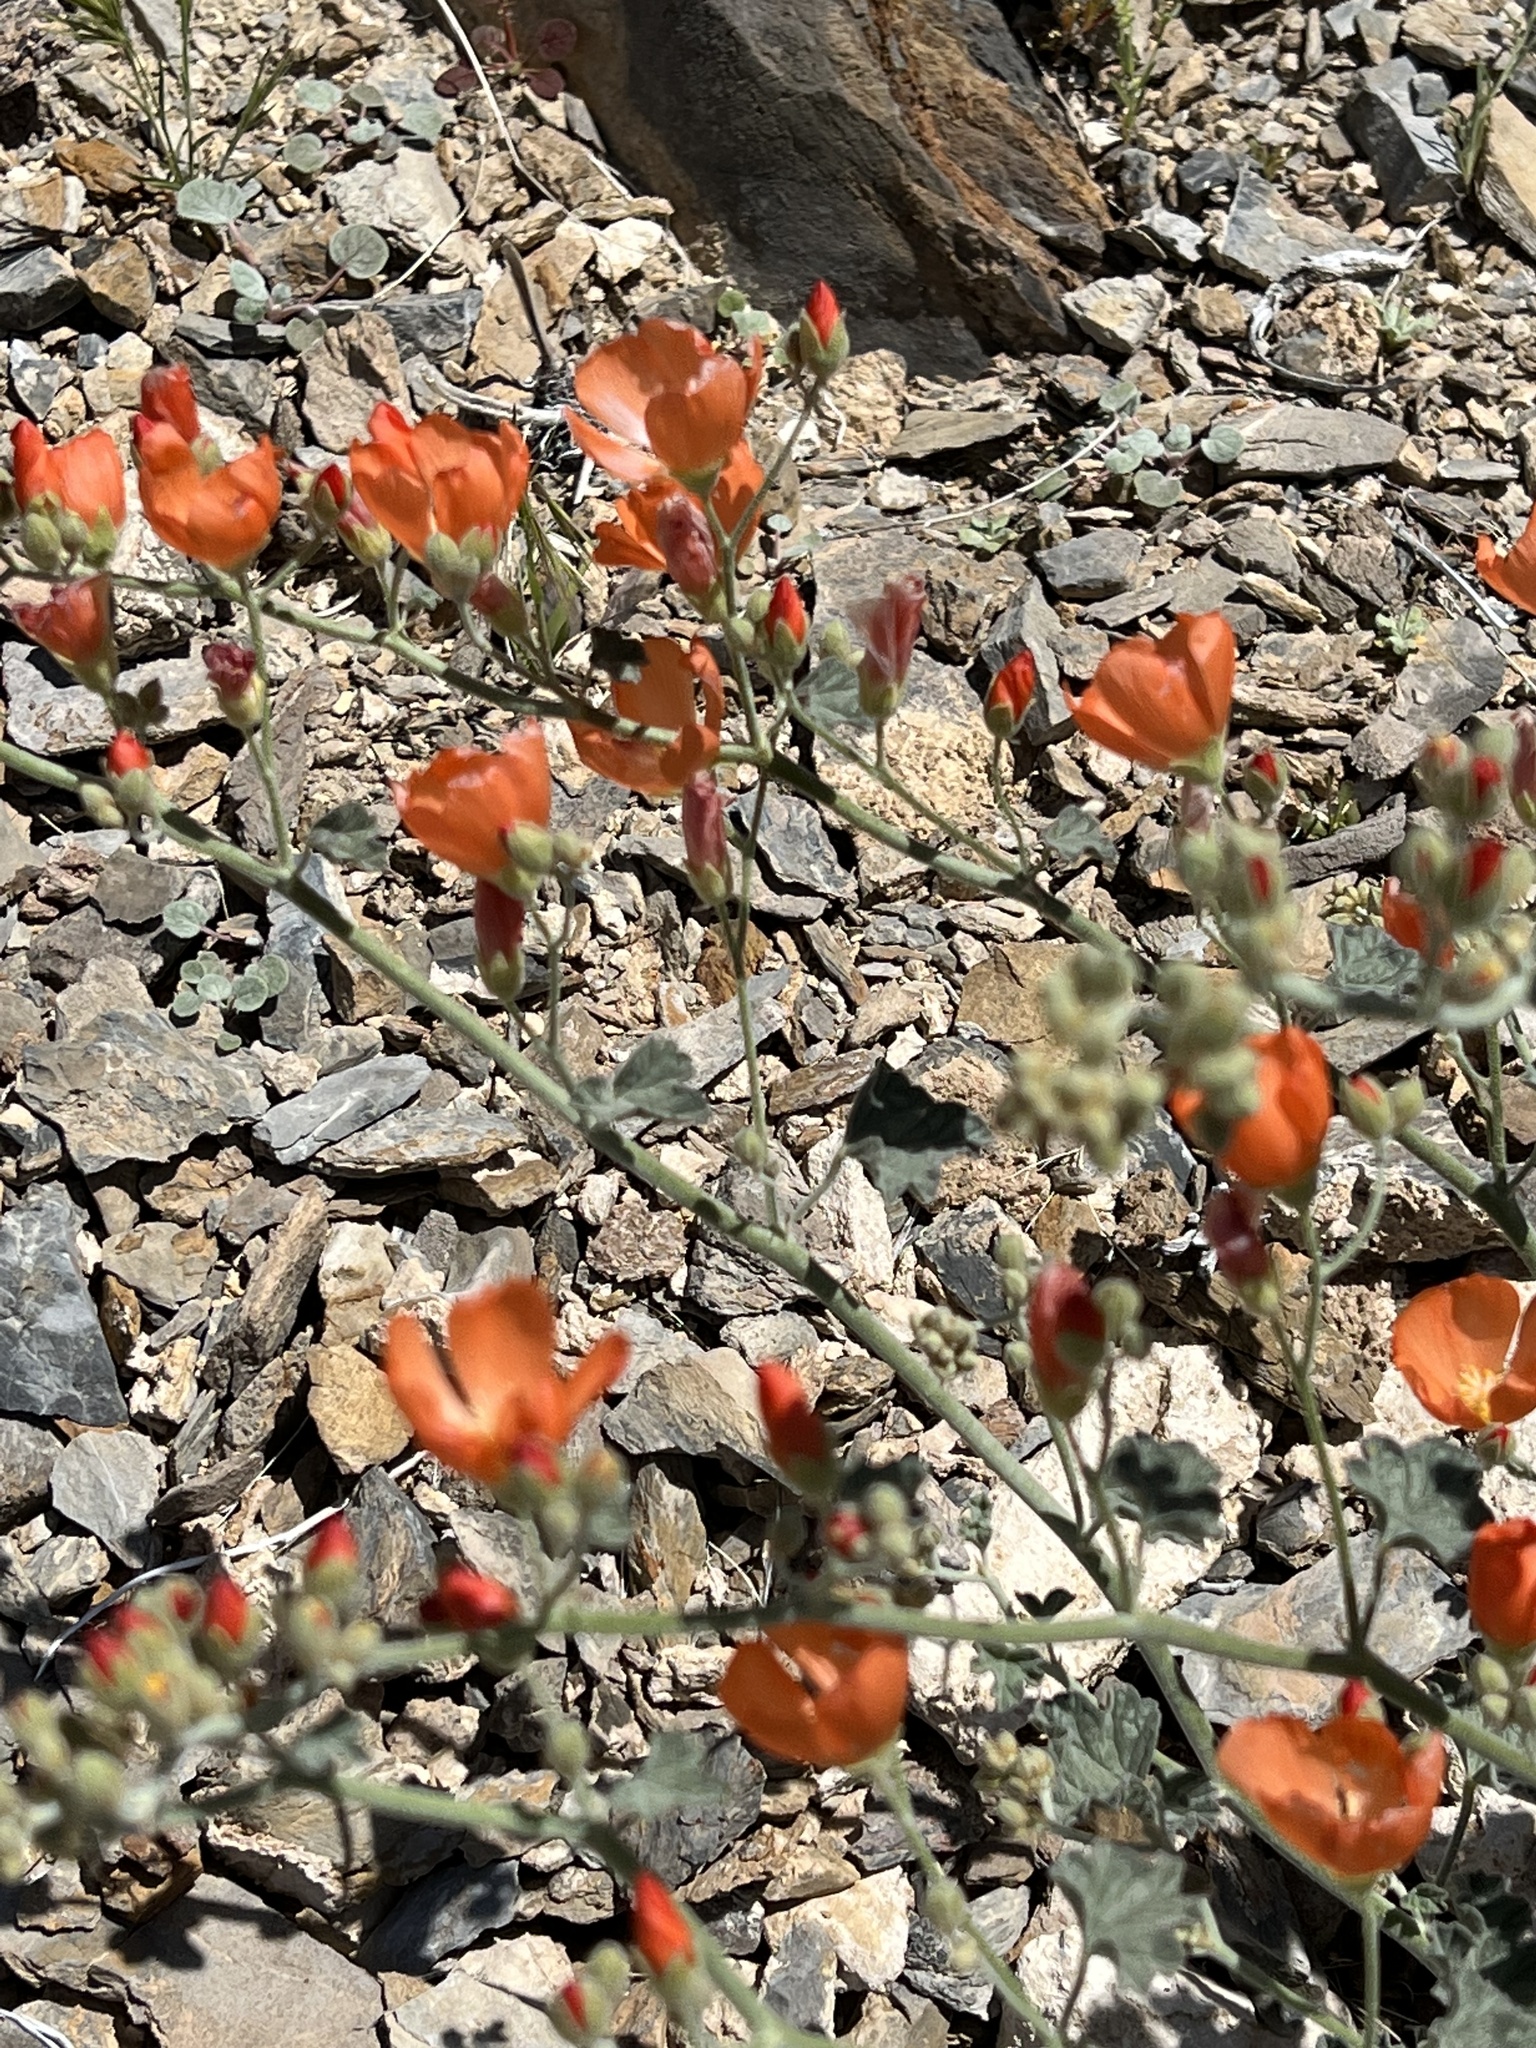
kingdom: Plantae
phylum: Tracheophyta
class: Magnoliopsida
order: Malvales
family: Malvaceae
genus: Sphaeralcea
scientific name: Sphaeralcea ambigua
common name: Apricot globe-mallow
